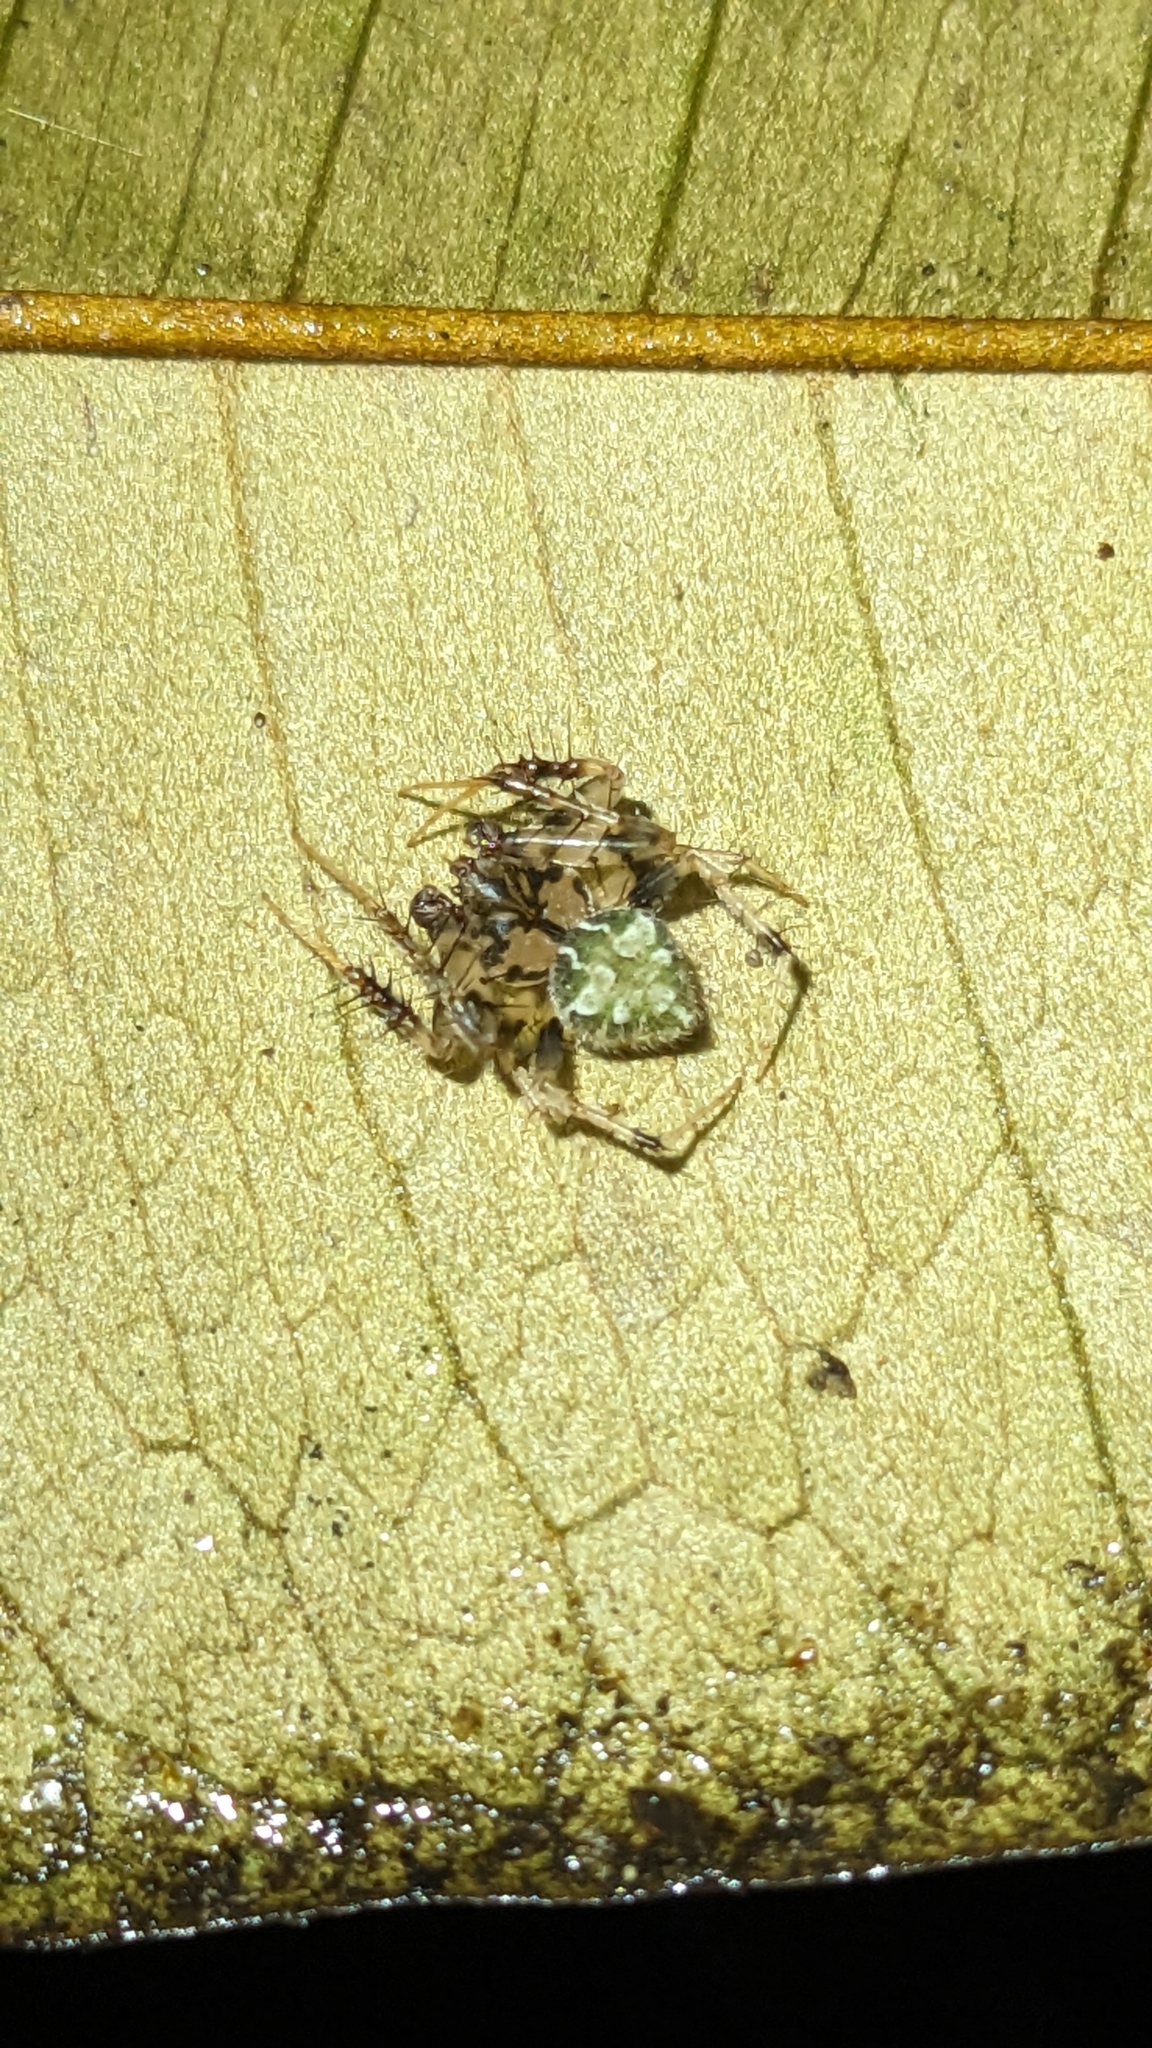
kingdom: Animalia
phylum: Arthropoda
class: Arachnida
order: Araneae
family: Araneidae
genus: Eriovixia
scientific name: Eriovixia laglaizei
